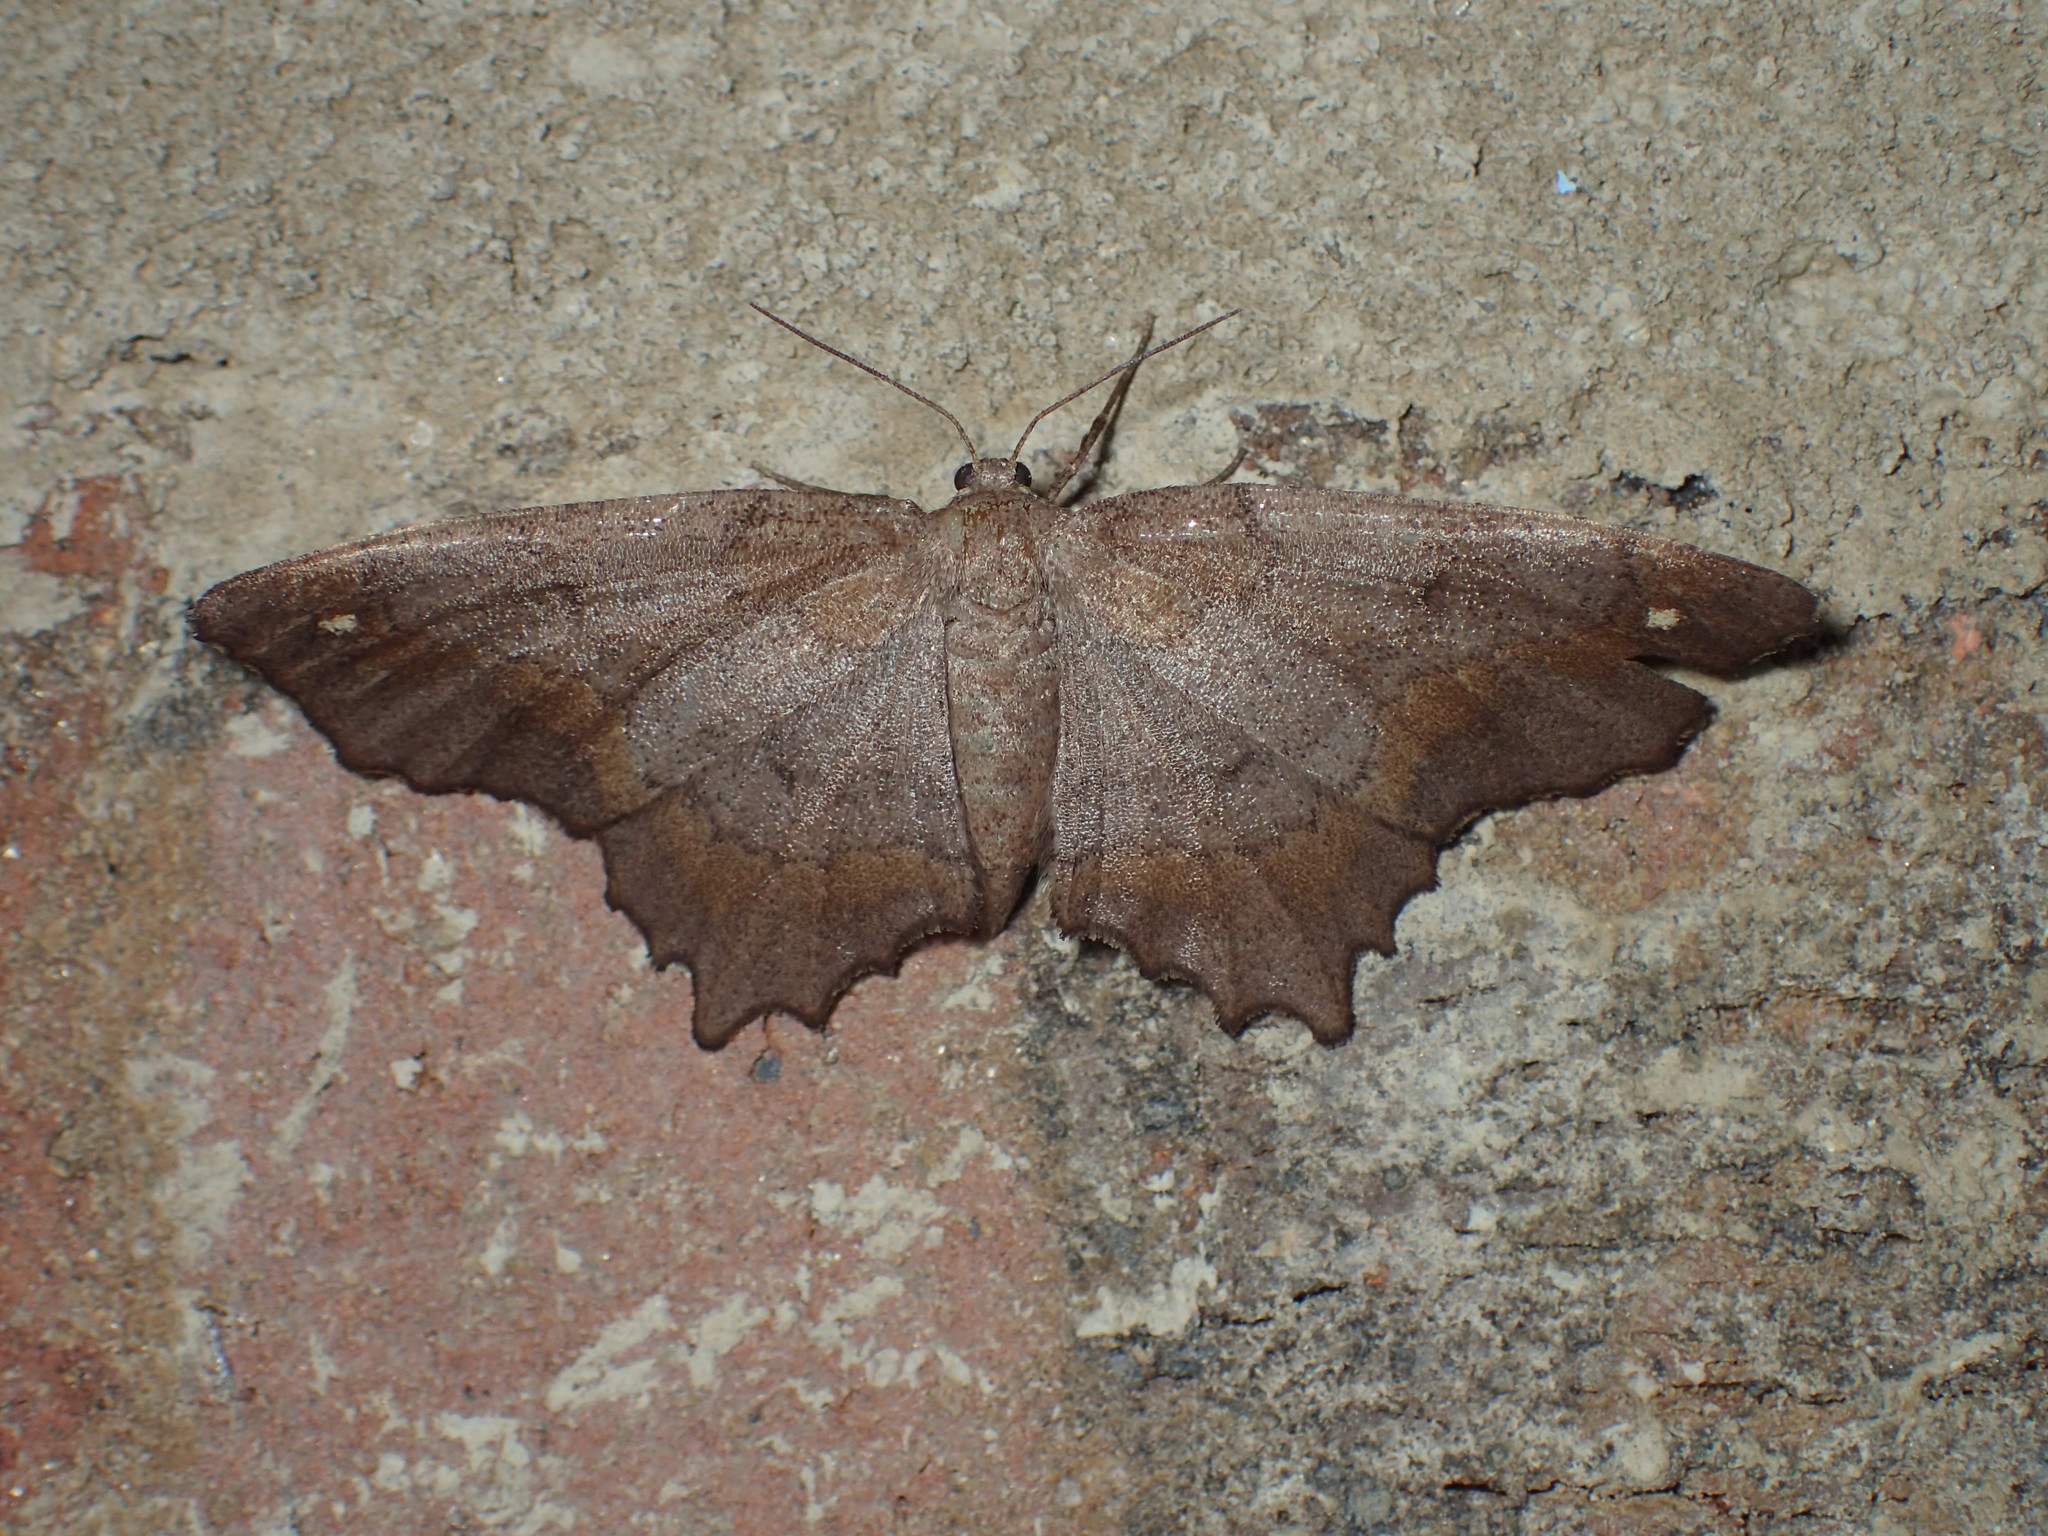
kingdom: Animalia
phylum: Arthropoda
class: Insecta
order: Lepidoptera
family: Geometridae
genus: Hypagyrtis
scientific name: Hypagyrtis
